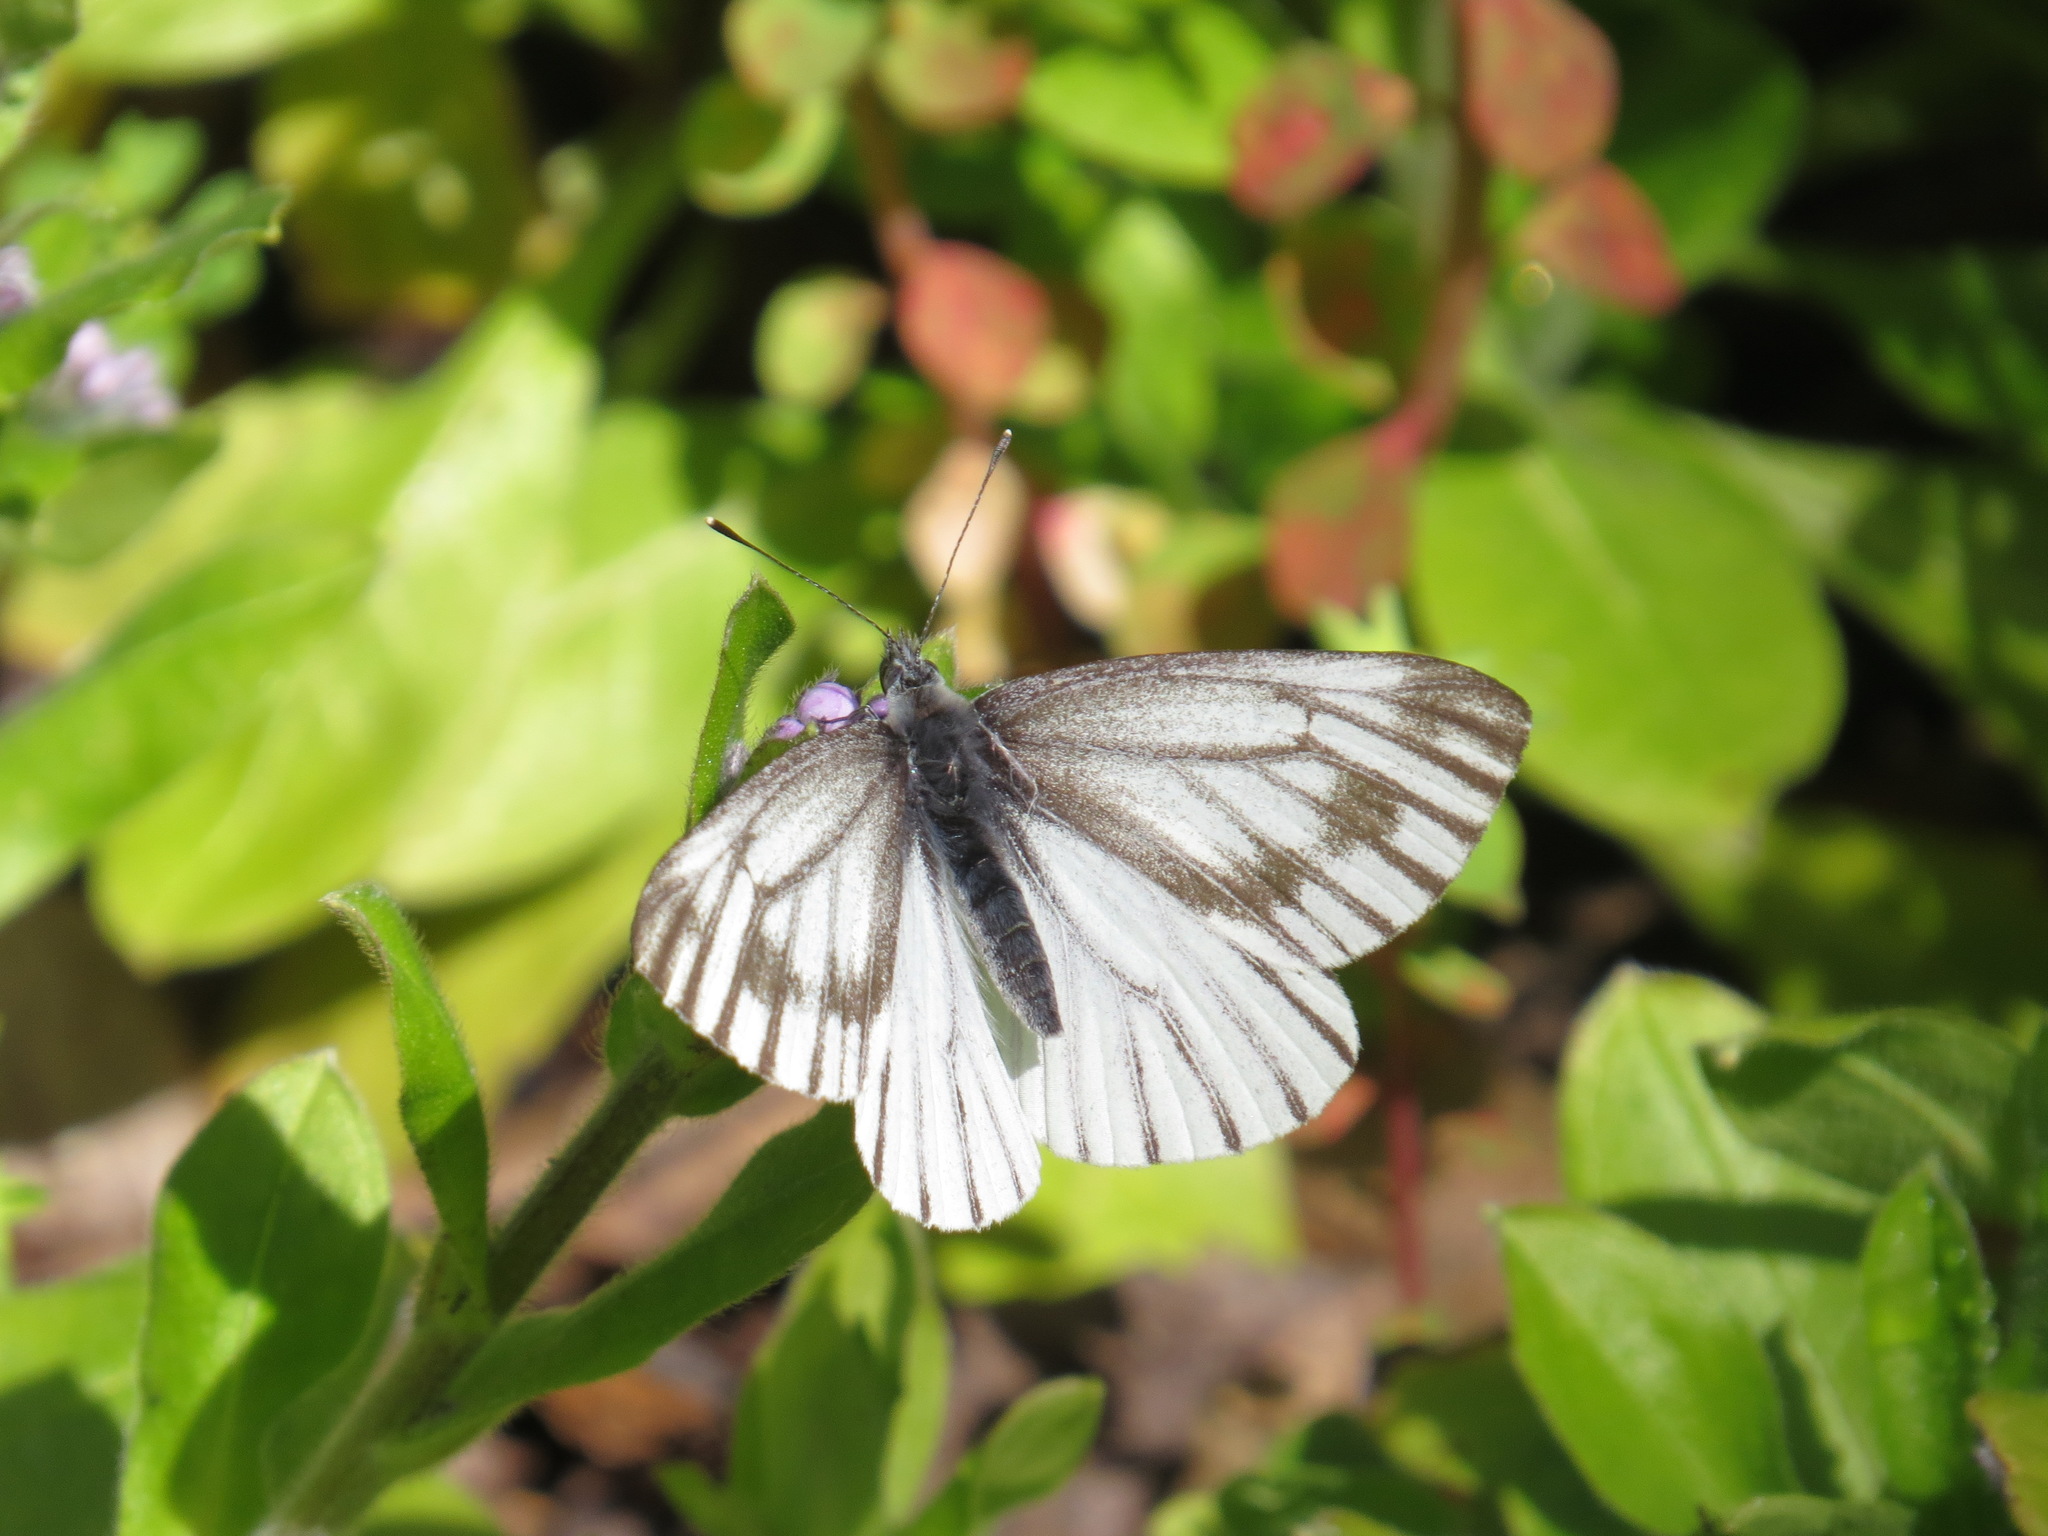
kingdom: Animalia
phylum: Arthropoda
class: Insecta
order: Lepidoptera
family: Pieridae
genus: Pieris
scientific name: Pieris marginalis
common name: Margined white
